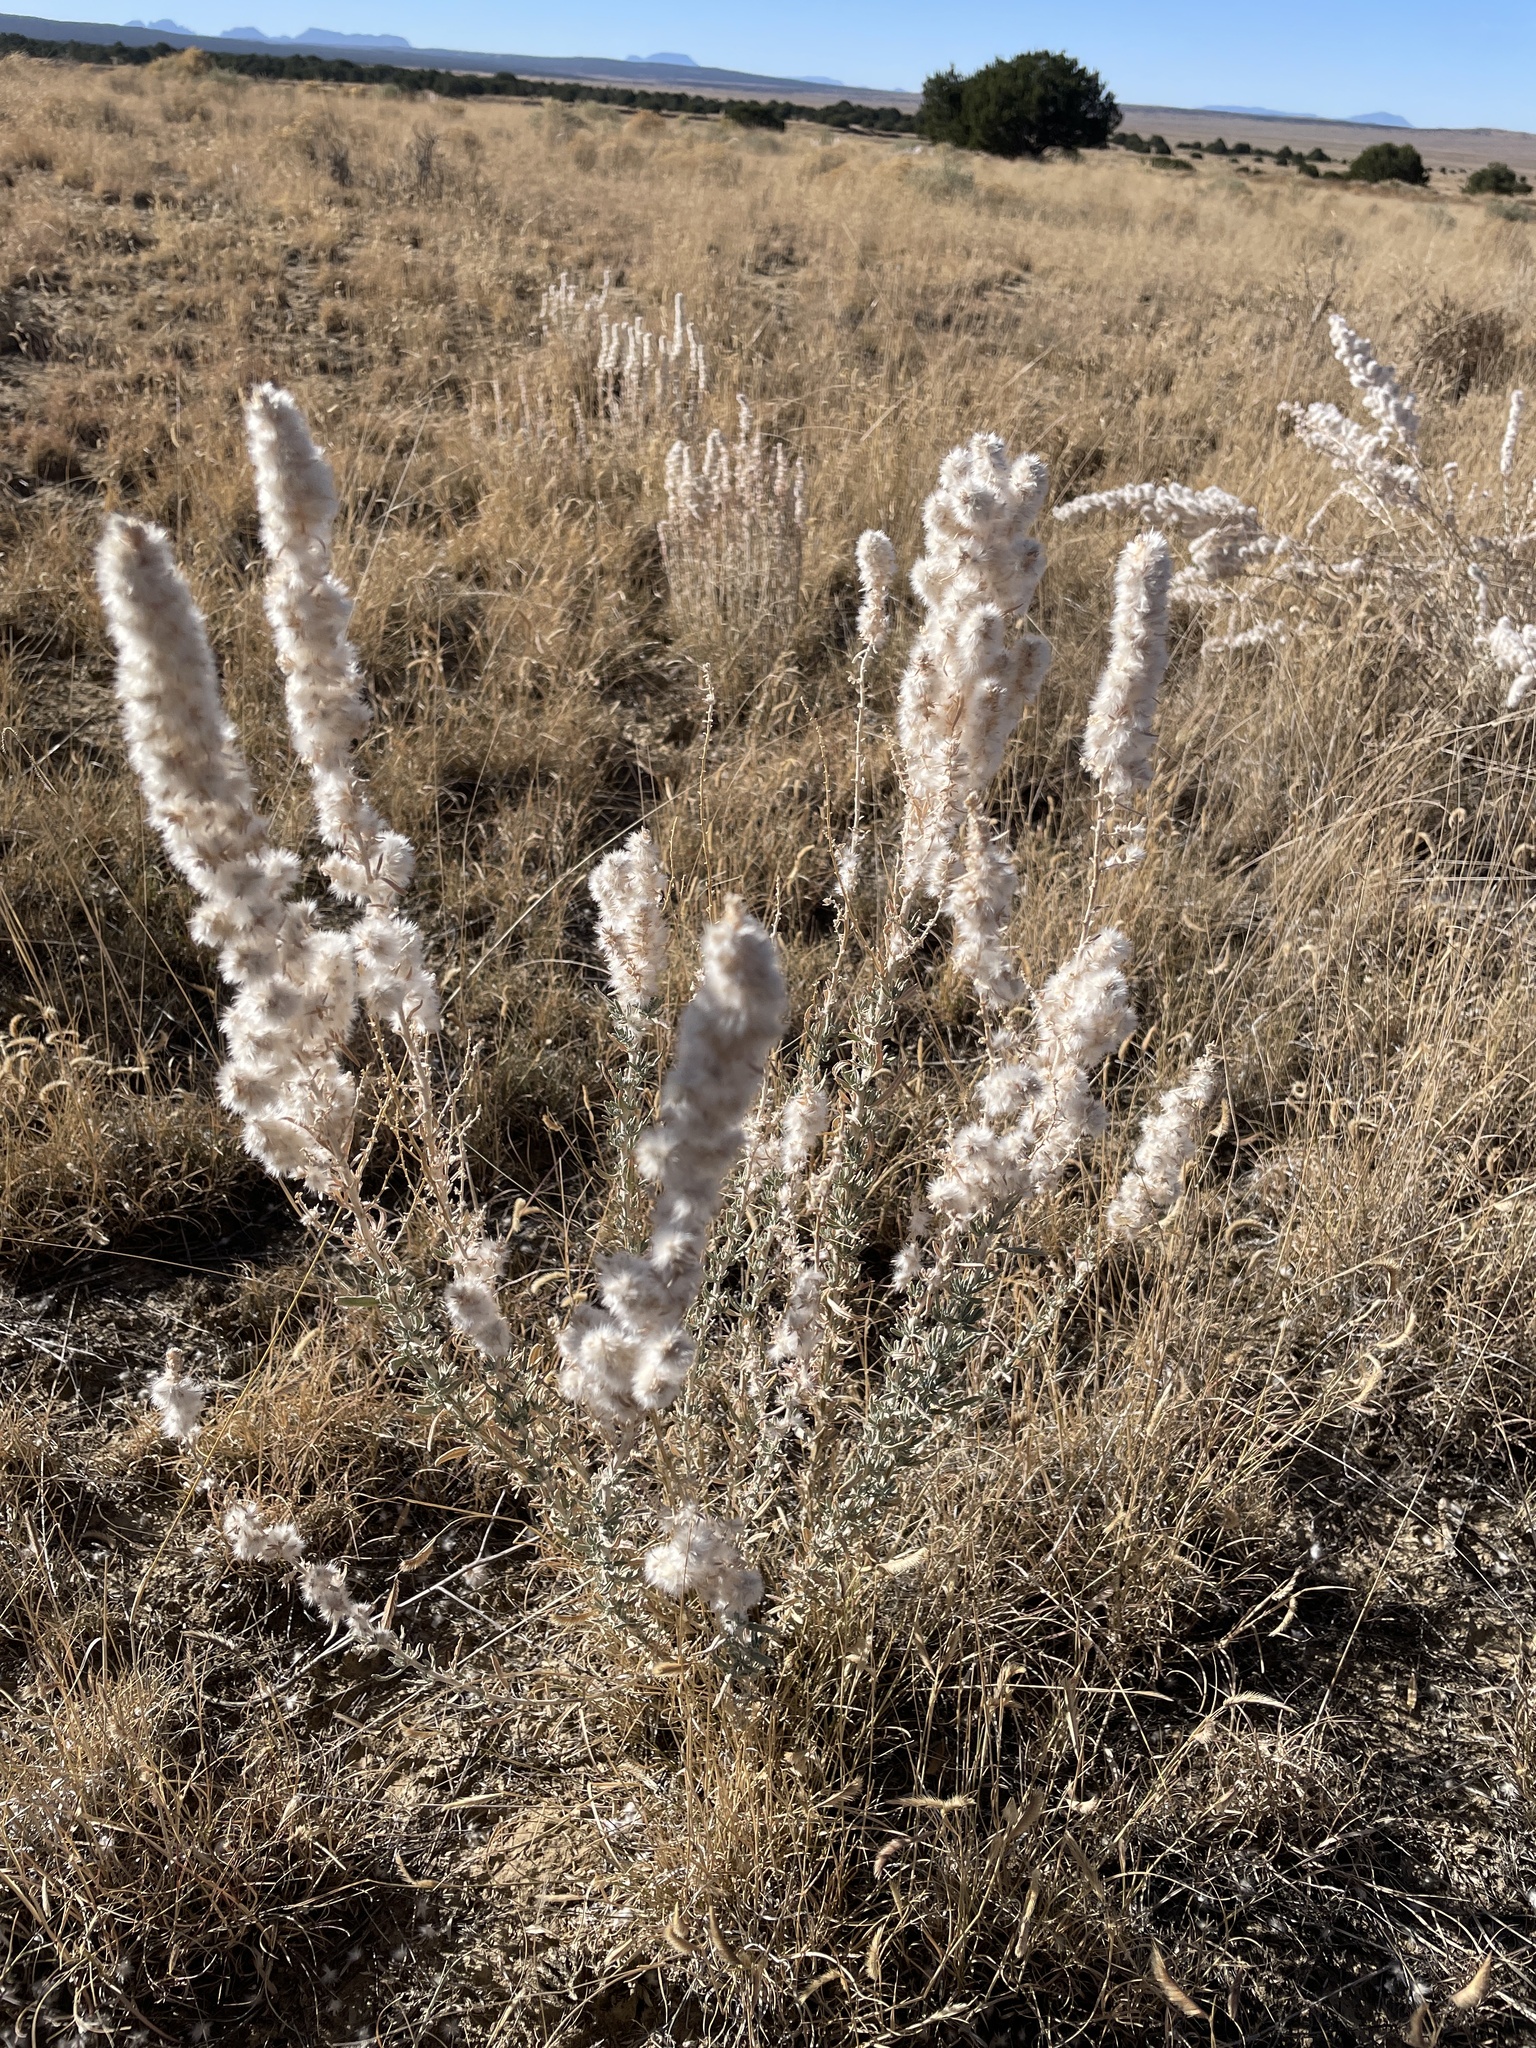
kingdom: Plantae
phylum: Tracheophyta
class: Magnoliopsida
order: Caryophyllales
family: Amaranthaceae
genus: Krascheninnikovia
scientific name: Krascheninnikovia lanata
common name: Winterfat
